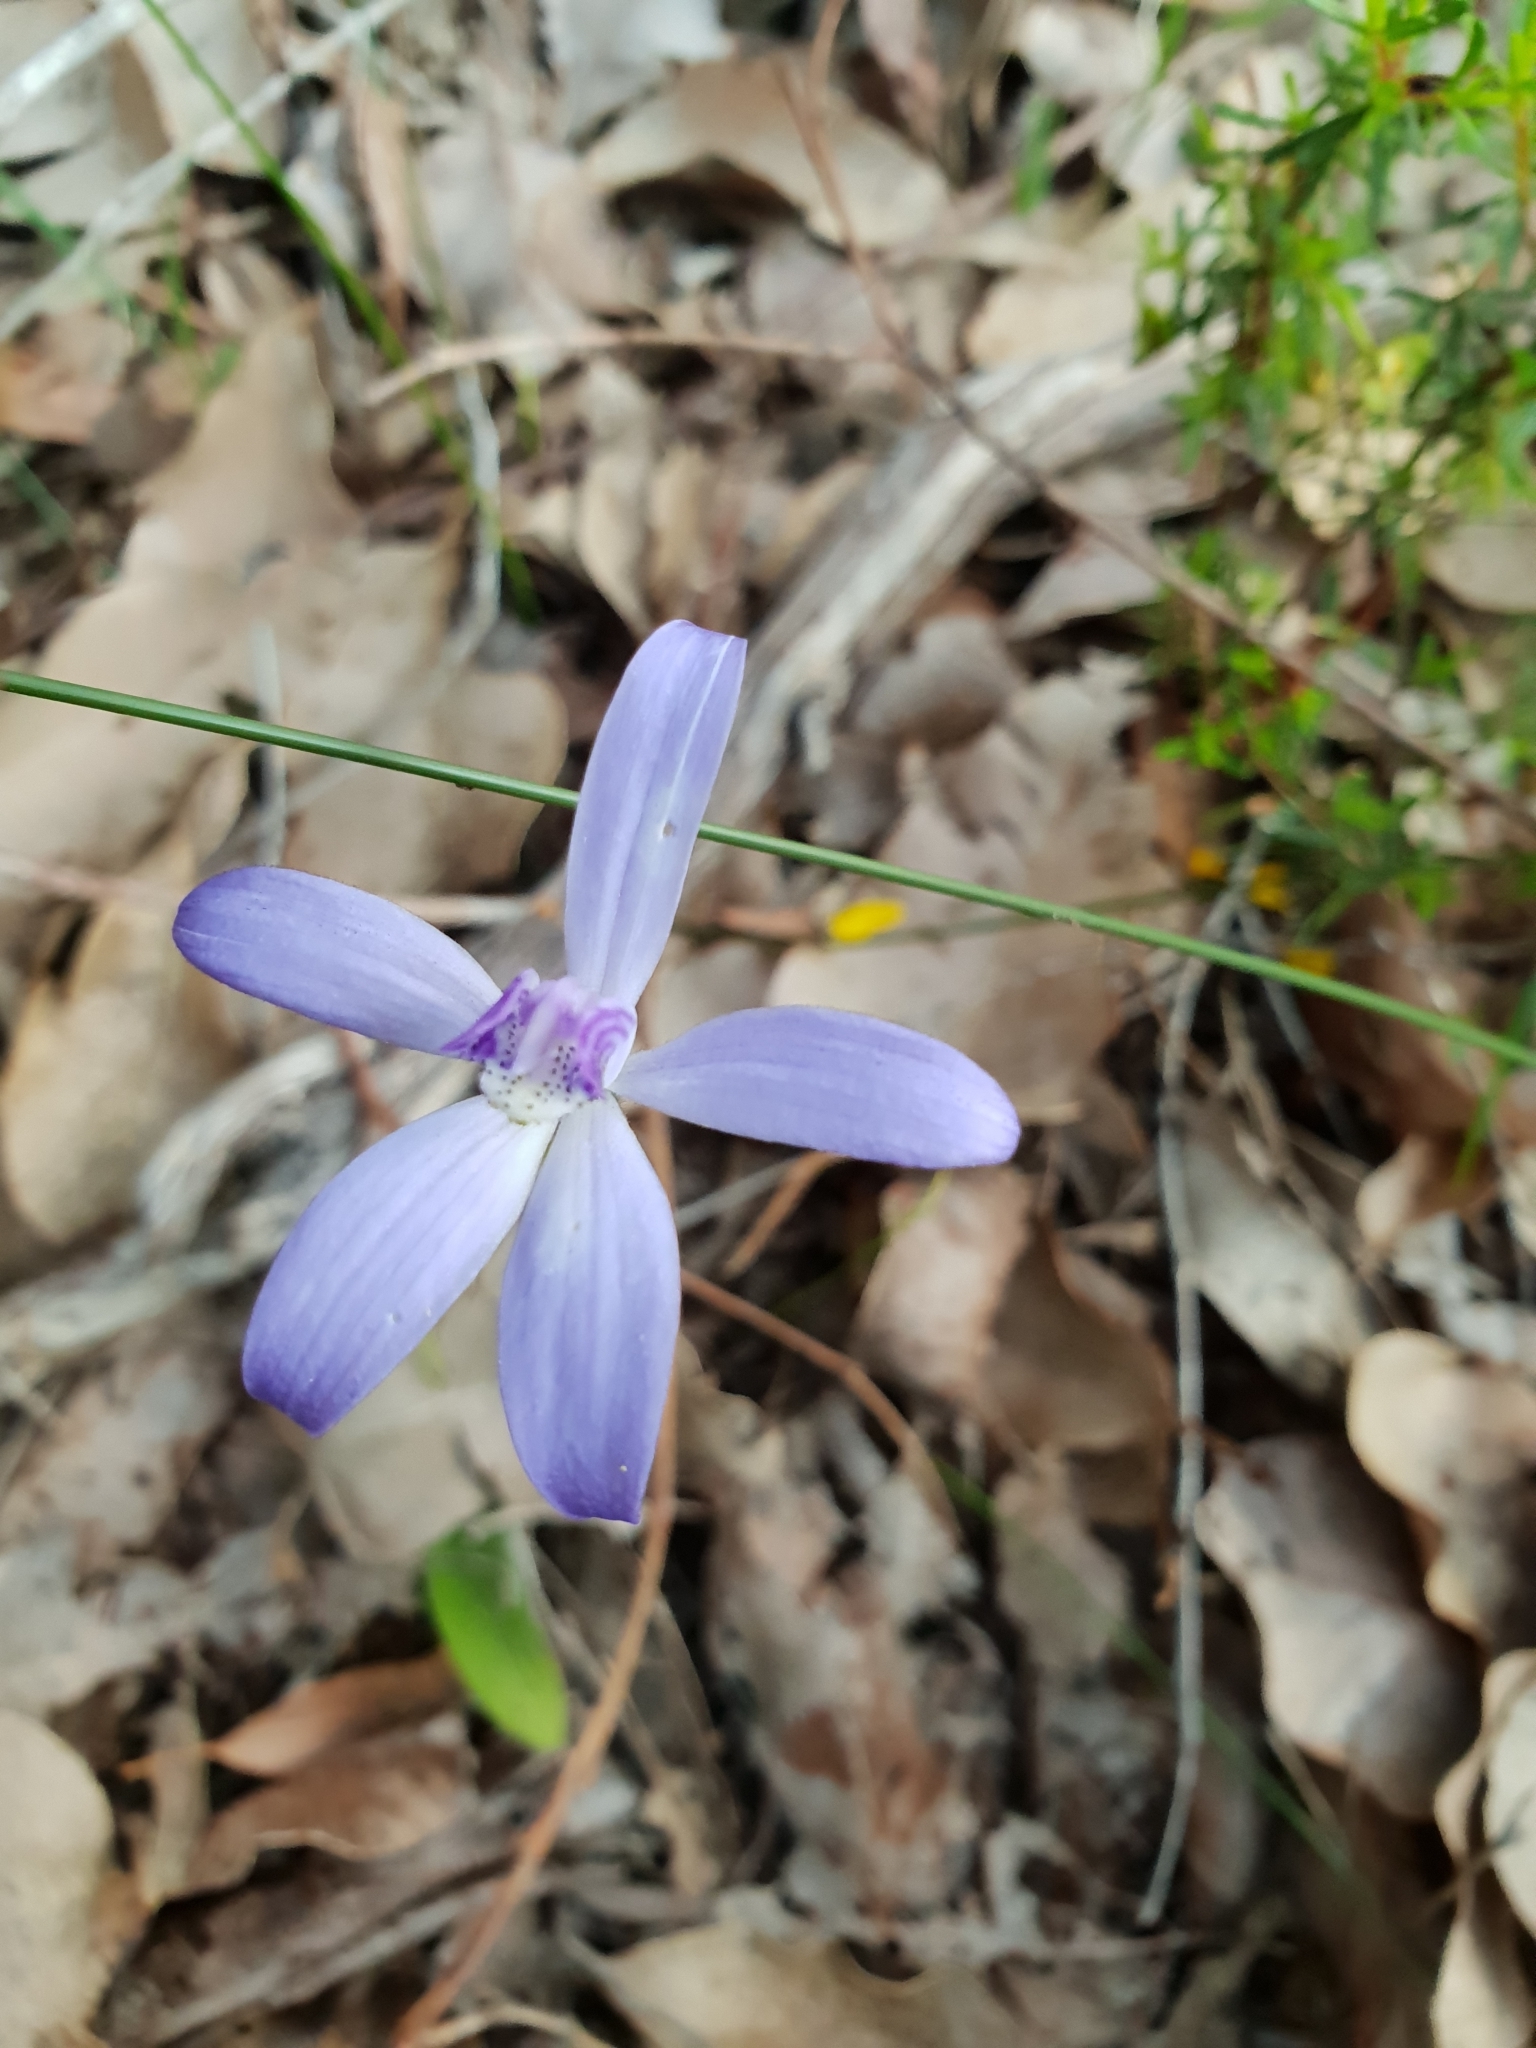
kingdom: Plantae
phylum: Tracheophyta
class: Liliopsida
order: Asparagales
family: Orchidaceae
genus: Caladenia
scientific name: Caladenia sericea
